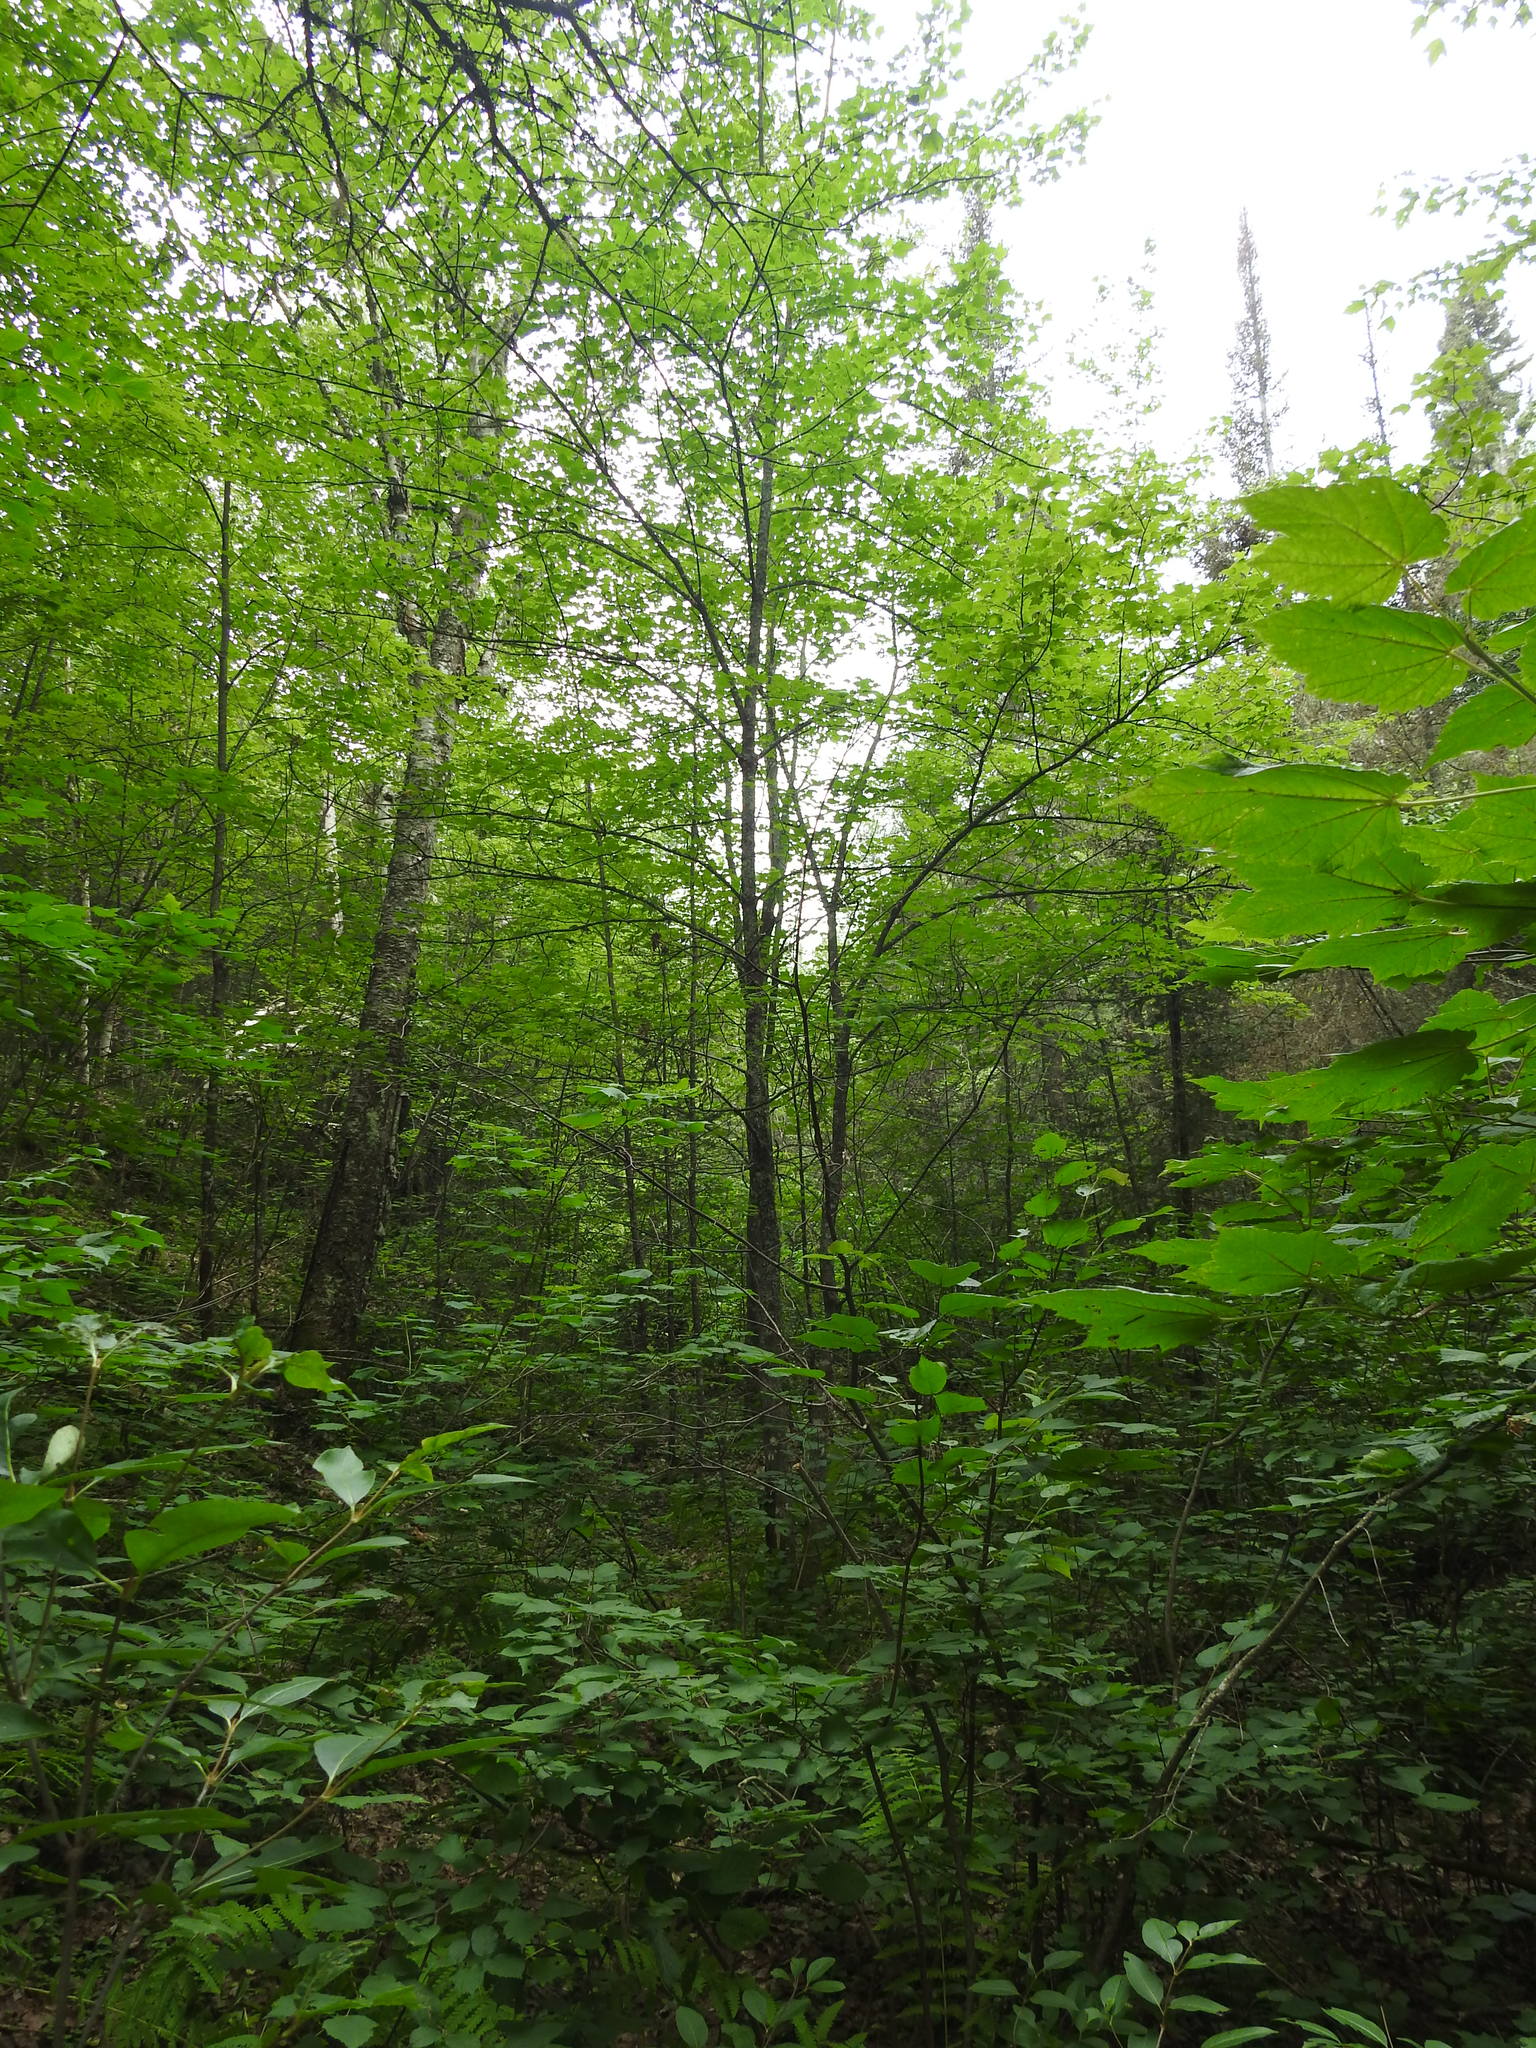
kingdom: Plantae
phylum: Tracheophyta
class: Magnoliopsida
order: Sapindales
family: Sapindaceae
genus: Acer
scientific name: Acer rubrum
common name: Red maple
